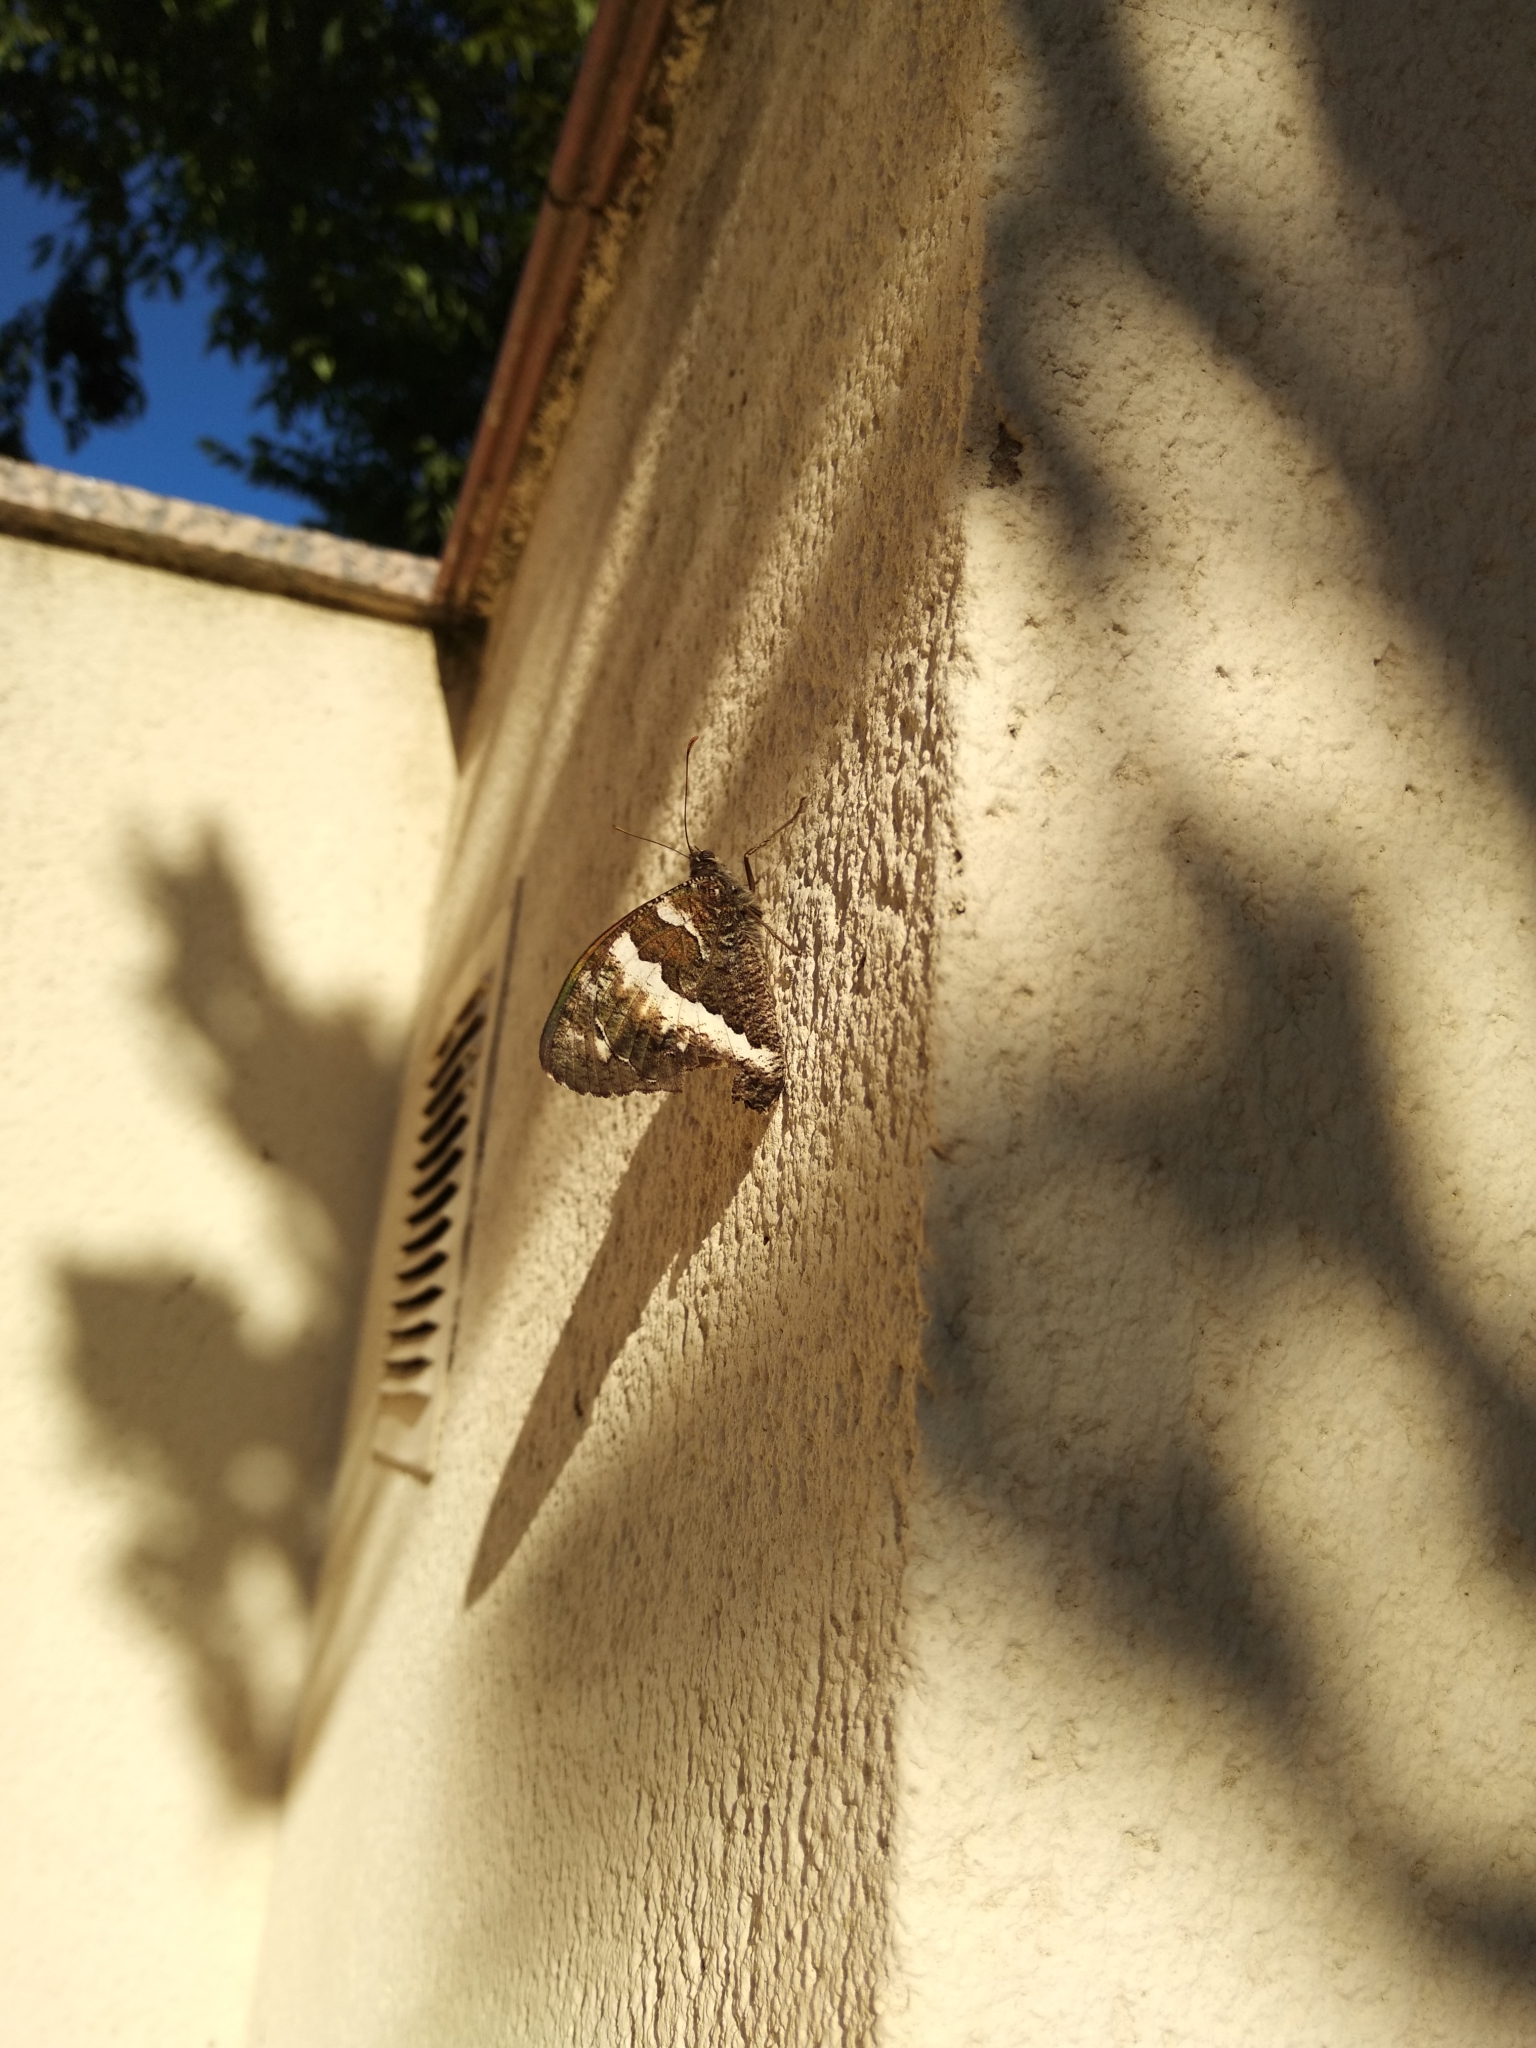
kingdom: Animalia
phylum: Arthropoda
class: Insecta
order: Lepidoptera
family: Lycaenidae
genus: Loweia
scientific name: Loweia tityrus
